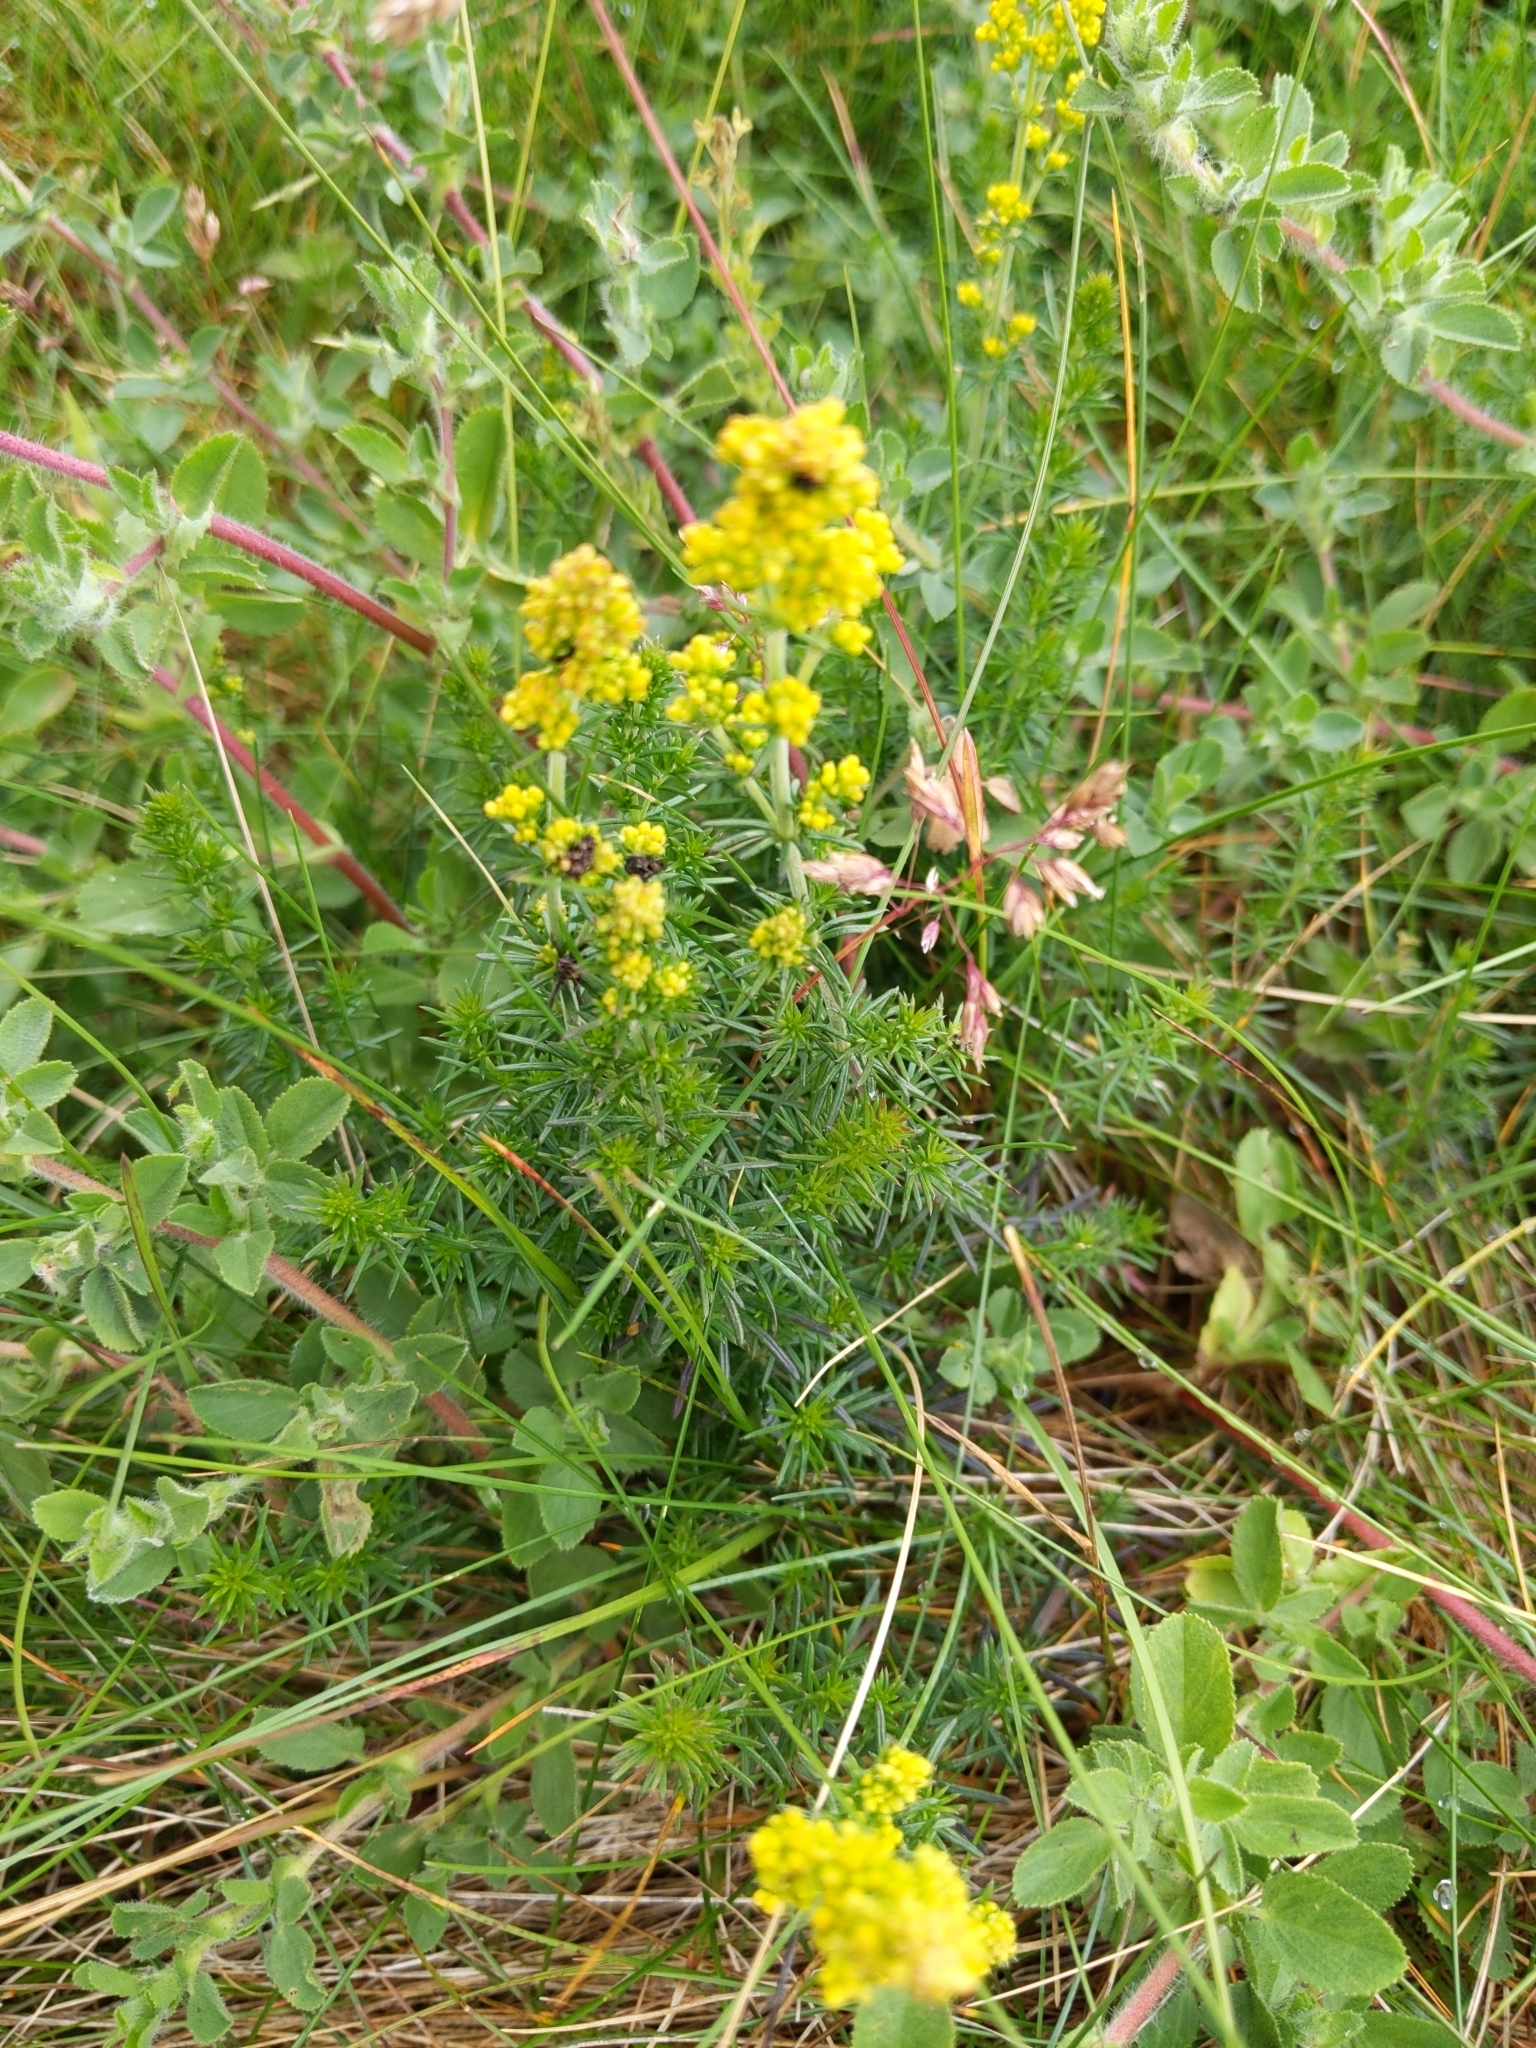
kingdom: Plantae
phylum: Tracheophyta
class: Magnoliopsida
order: Gentianales
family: Rubiaceae
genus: Galium
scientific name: Galium verum
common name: Lady's bedstraw
